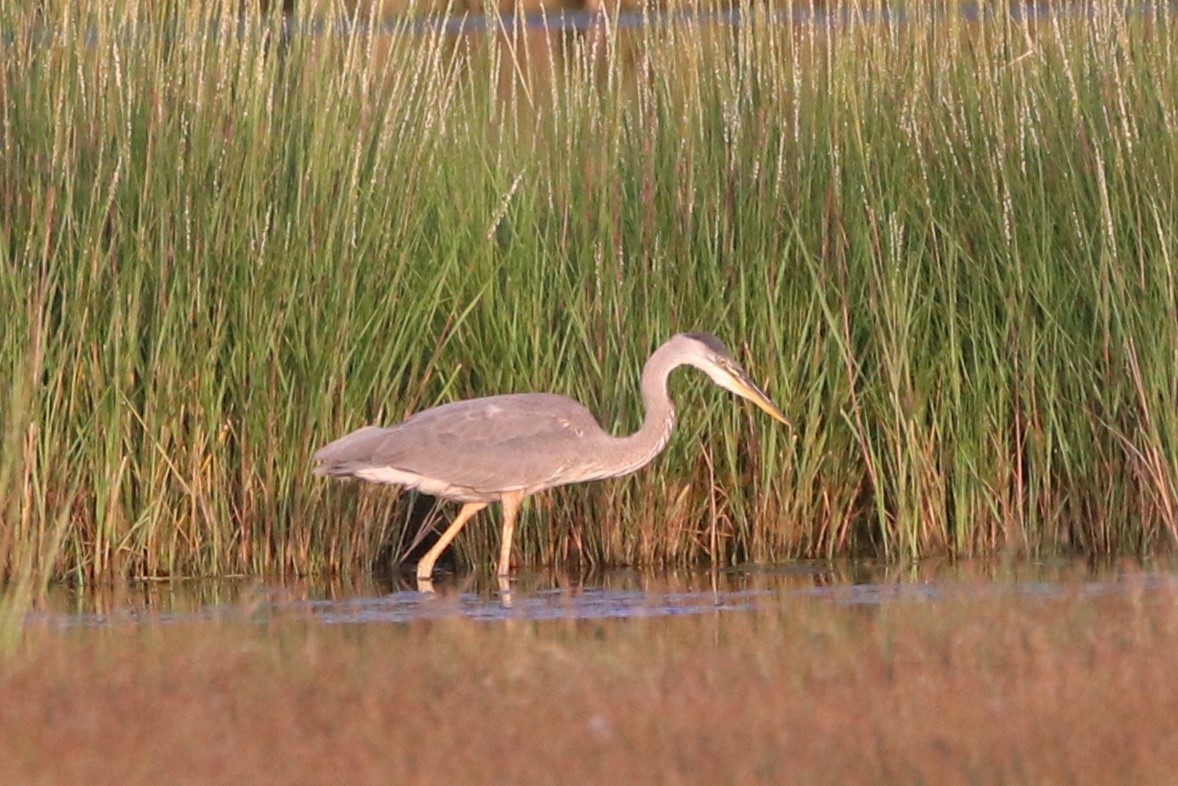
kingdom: Animalia
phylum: Chordata
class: Aves
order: Pelecaniformes
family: Ardeidae
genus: Ardea
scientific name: Ardea herodias
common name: Great blue heron
